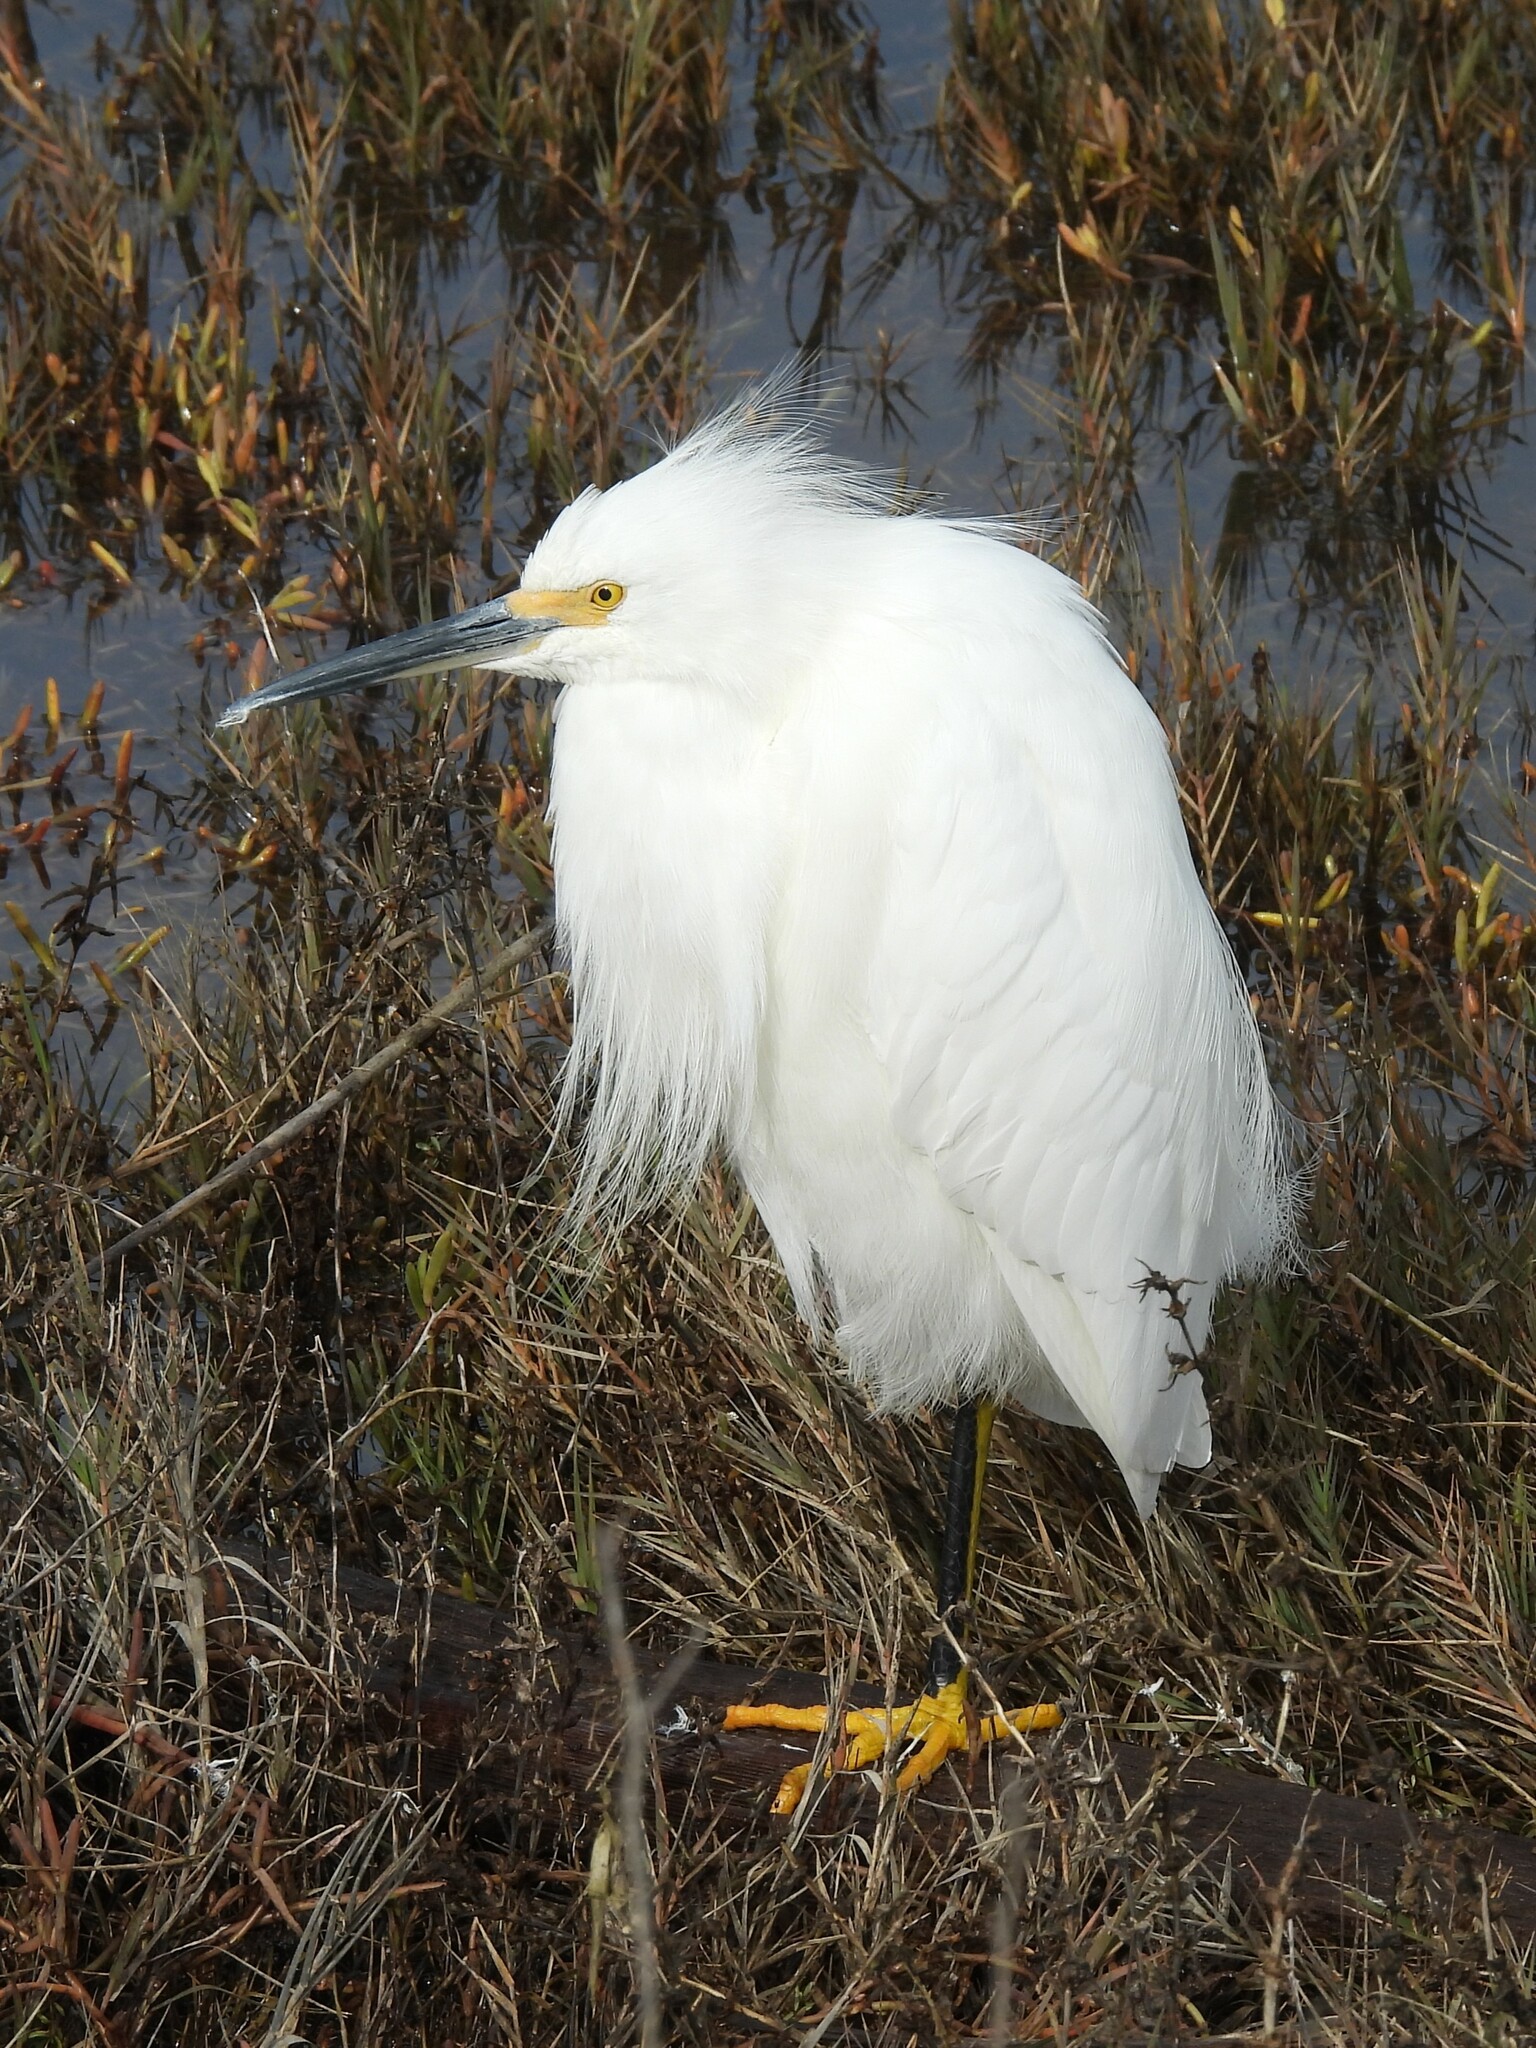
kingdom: Animalia
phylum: Chordata
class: Aves
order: Pelecaniformes
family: Ardeidae
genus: Egretta
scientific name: Egretta thula
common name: Snowy egret
